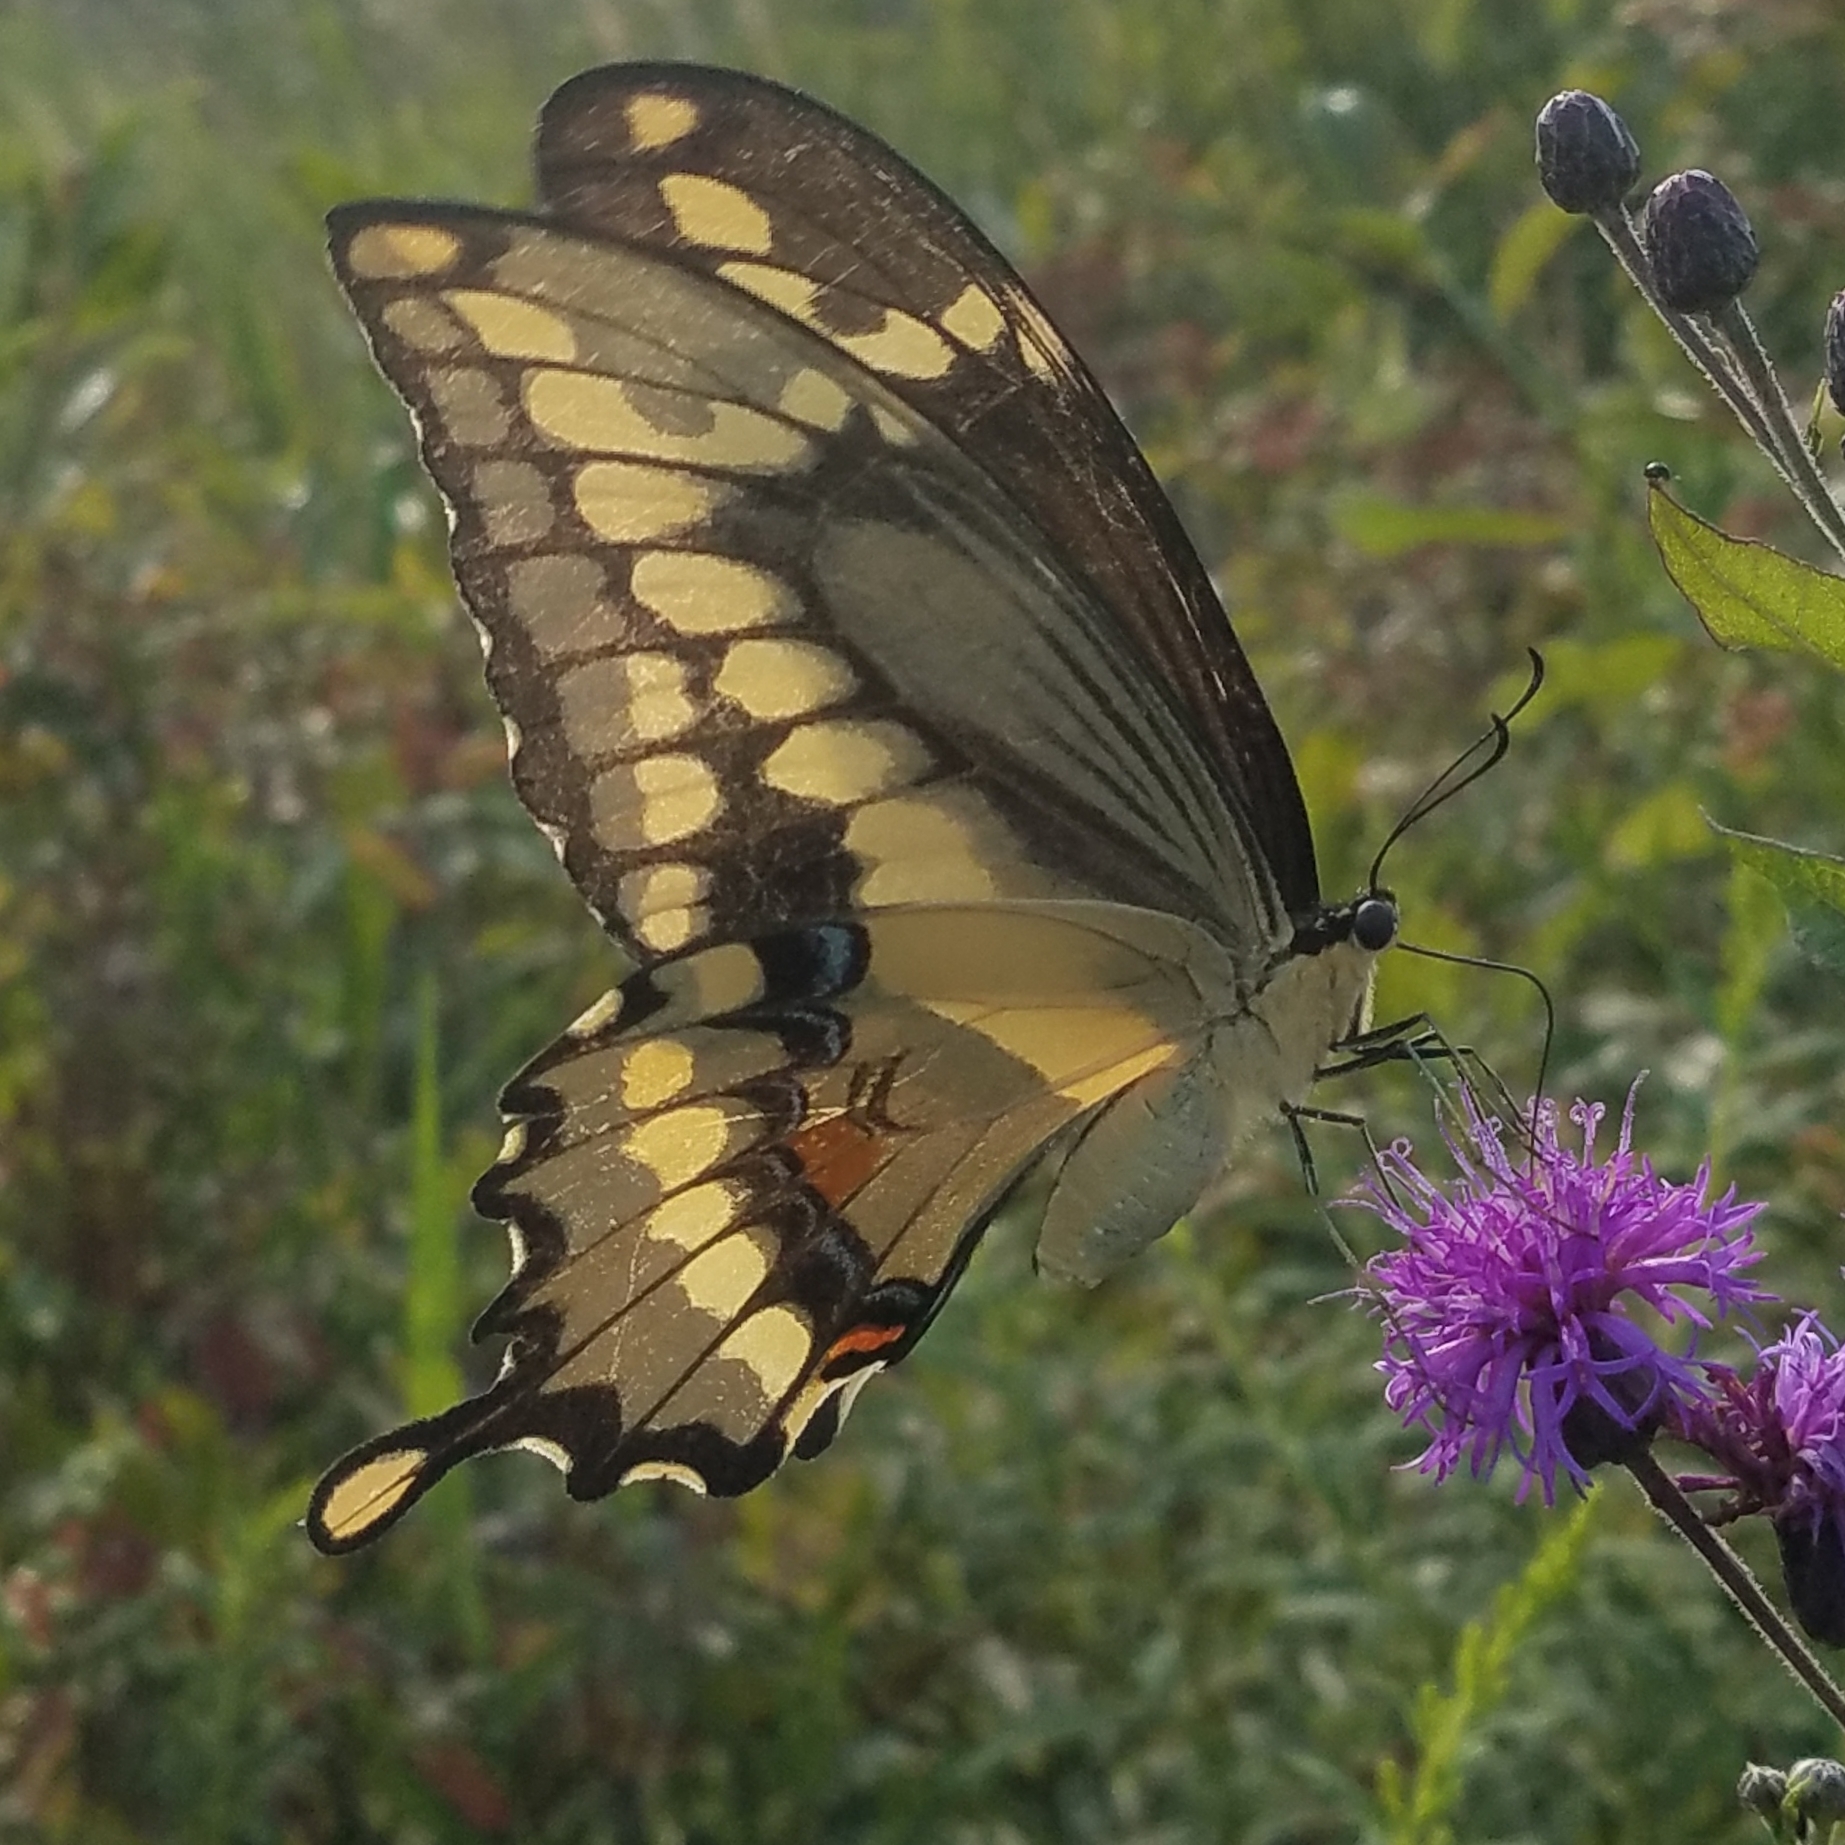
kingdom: Animalia
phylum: Arthropoda
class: Insecta
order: Lepidoptera
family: Papilionidae
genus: Papilio
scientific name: Papilio cresphontes
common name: Giant swallowtail
